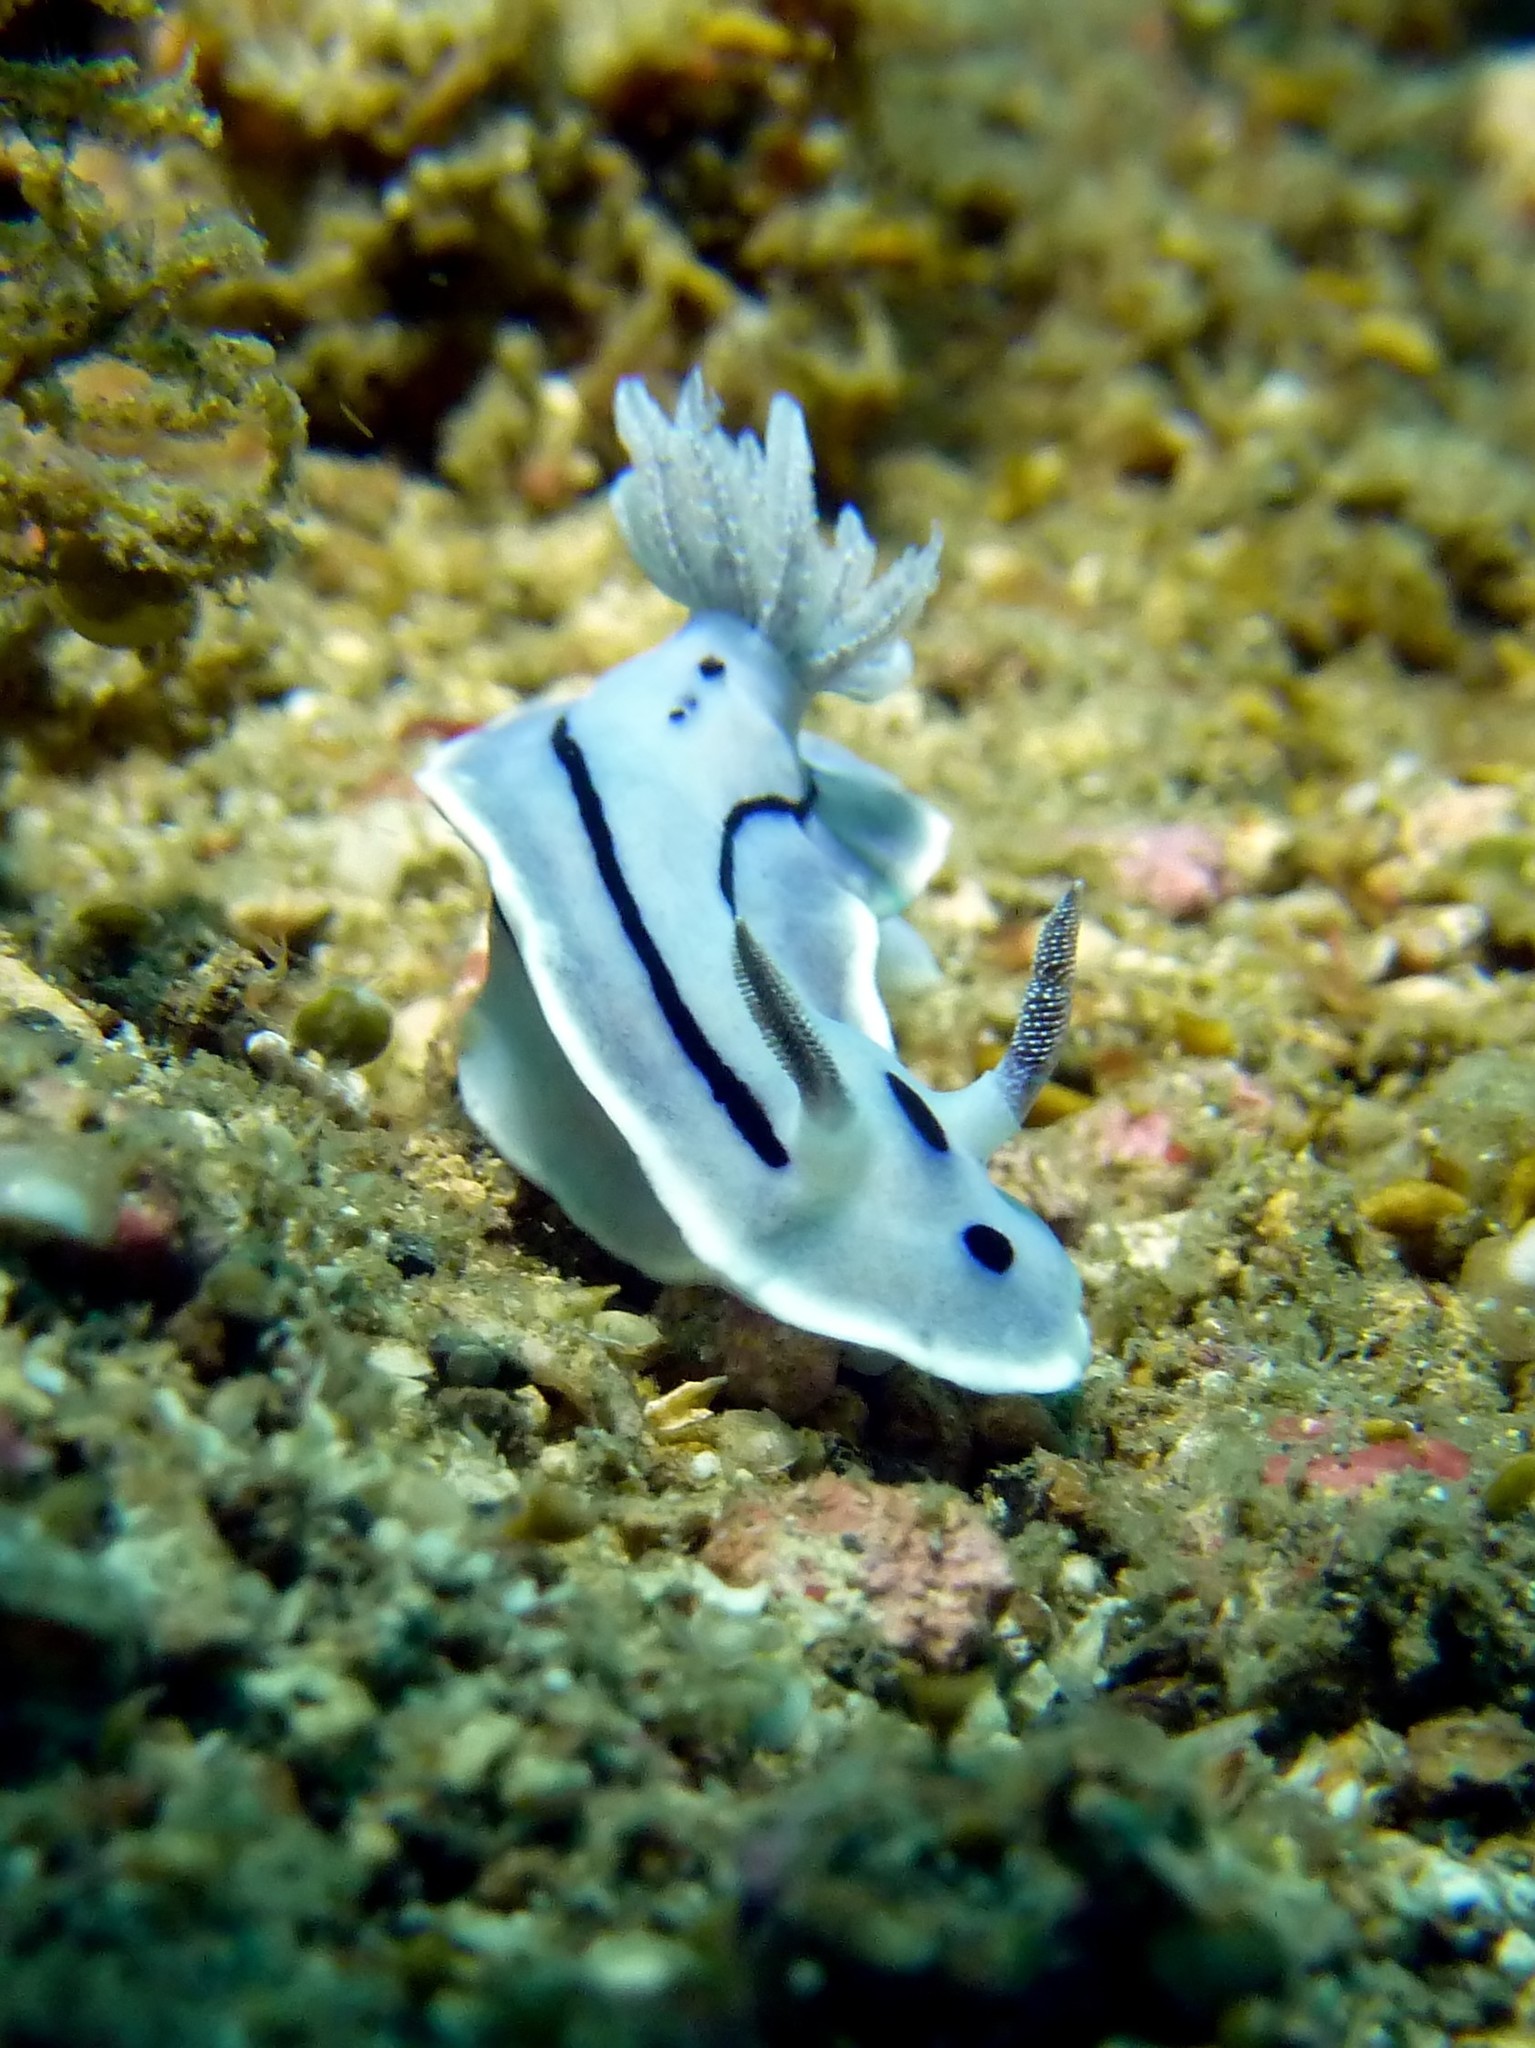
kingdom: Animalia
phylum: Mollusca
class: Gastropoda
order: Nudibranchia
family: Chromodorididae
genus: Chromodoris
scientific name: Chromodoris willani
